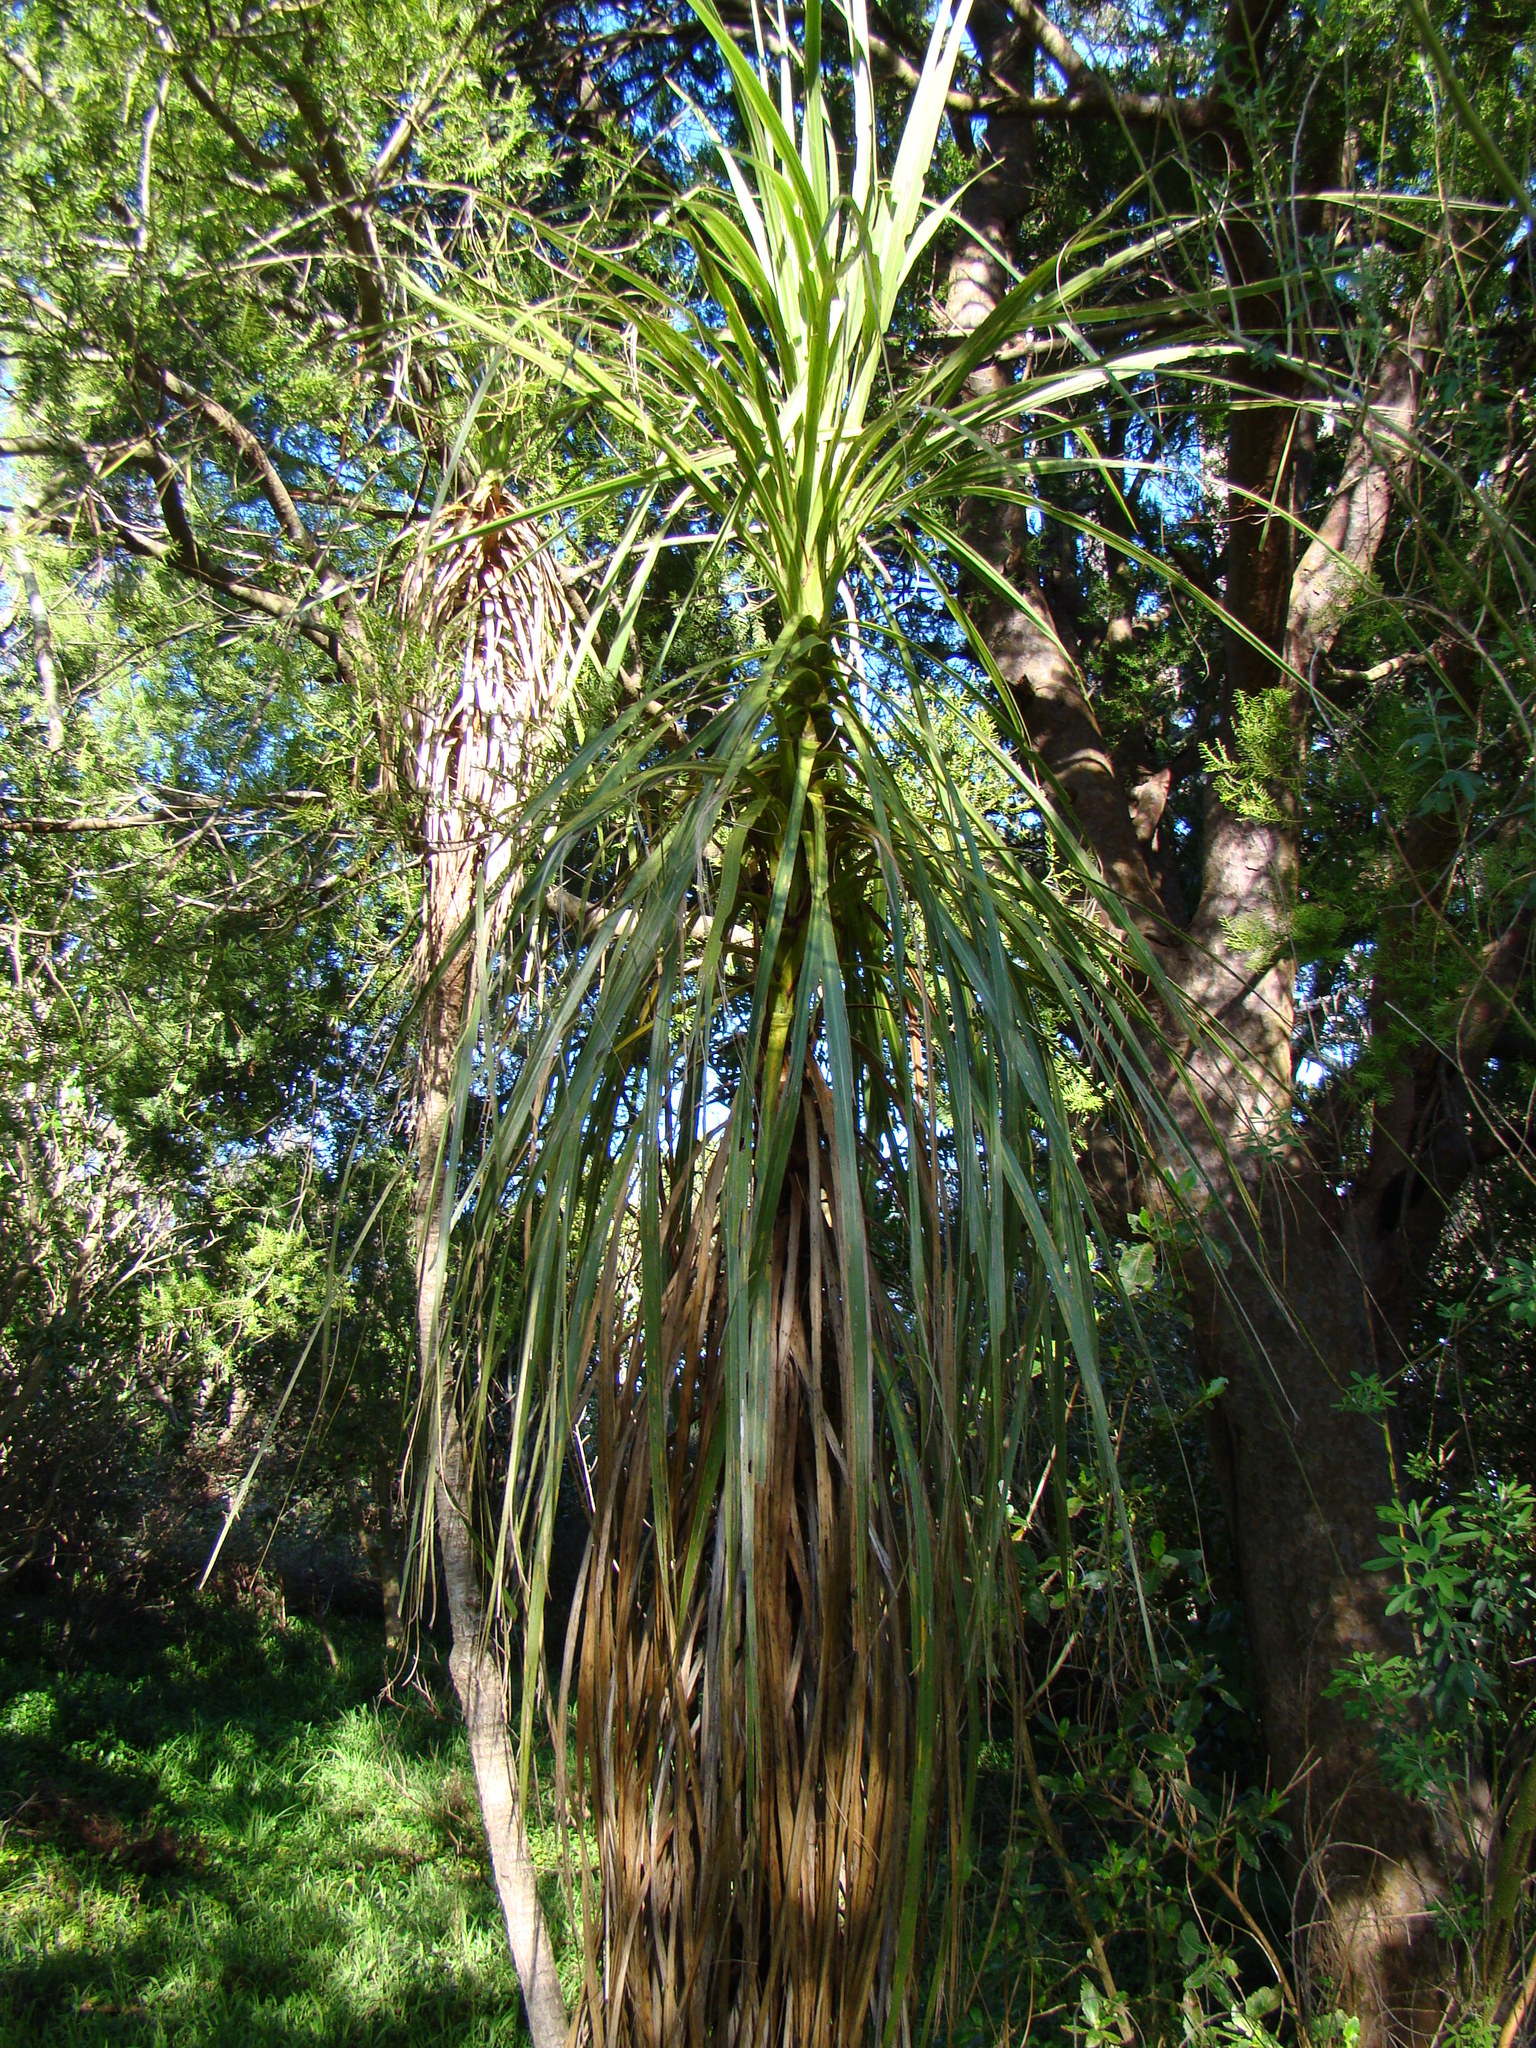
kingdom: Plantae
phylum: Tracheophyta
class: Liliopsida
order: Asparagales
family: Asparagaceae
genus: Cordyline
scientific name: Cordyline banksii
